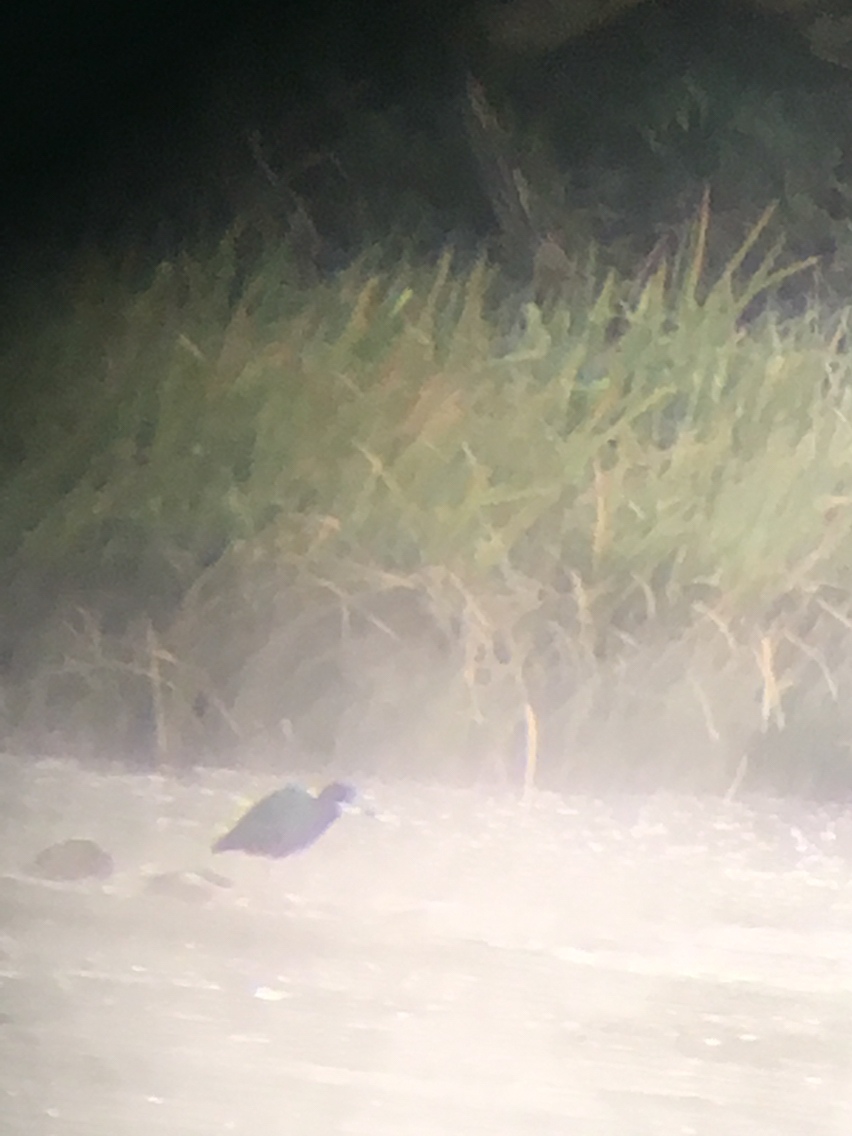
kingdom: Animalia
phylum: Chordata
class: Aves
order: Pelecaniformes
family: Ardeidae
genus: Egretta
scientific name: Egretta caerulea
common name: Little blue heron
